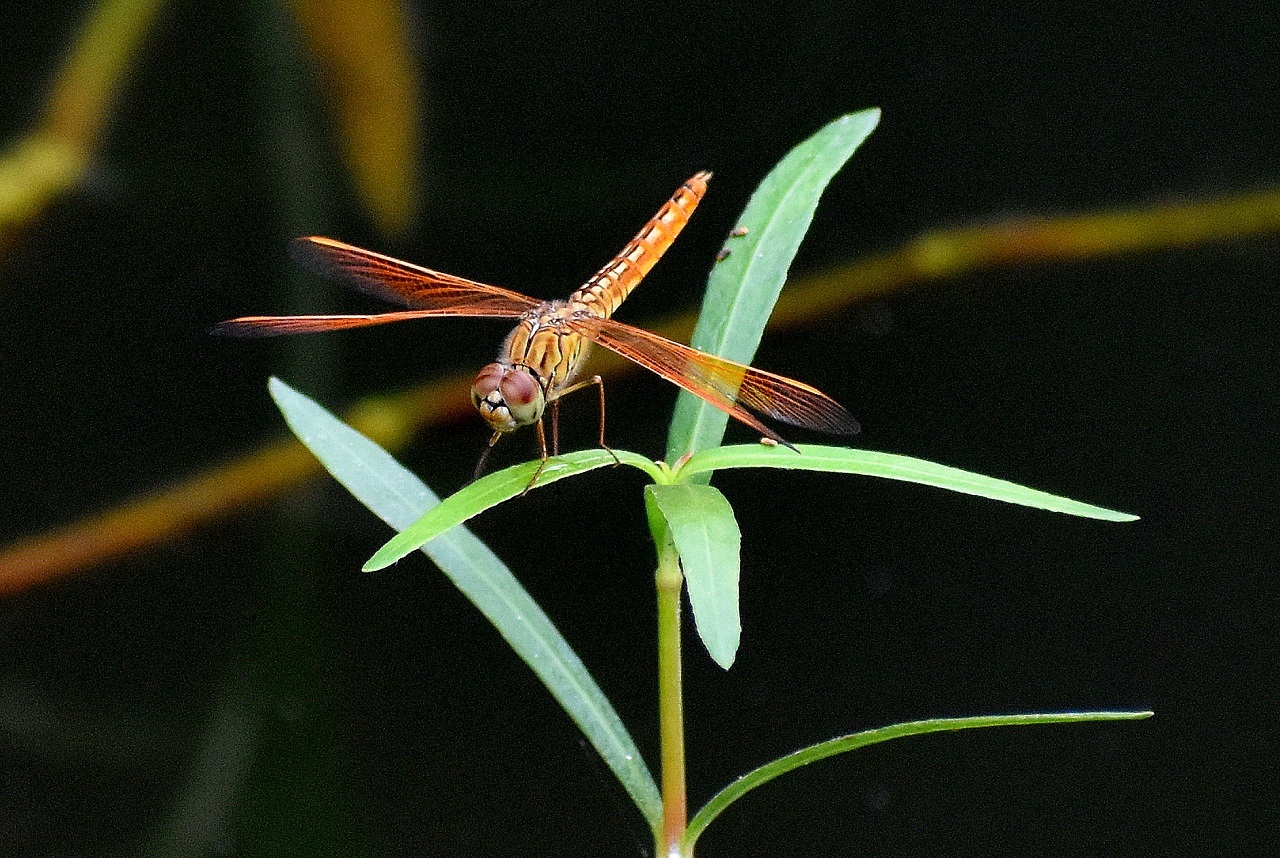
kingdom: Animalia
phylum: Arthropoda
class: Insecta
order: Odonata
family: Libellulidae
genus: Brachythemis
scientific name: Brachythemis contaminata
